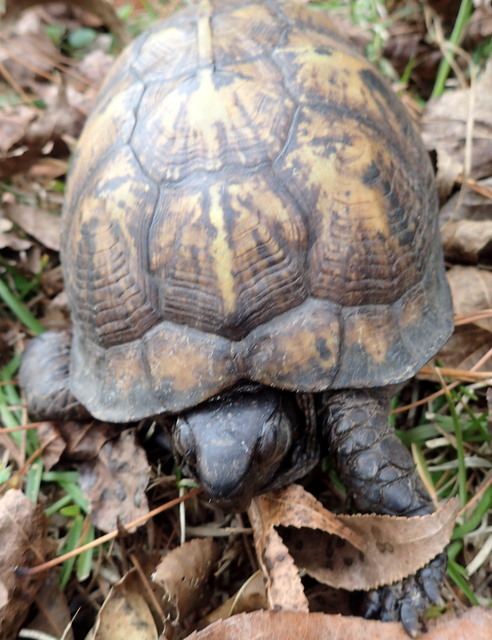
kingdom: Animalia
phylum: Chordata
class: Testudines
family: Emydidae
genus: Terrapene
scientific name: Terrapene carolina
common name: Common box turtle
